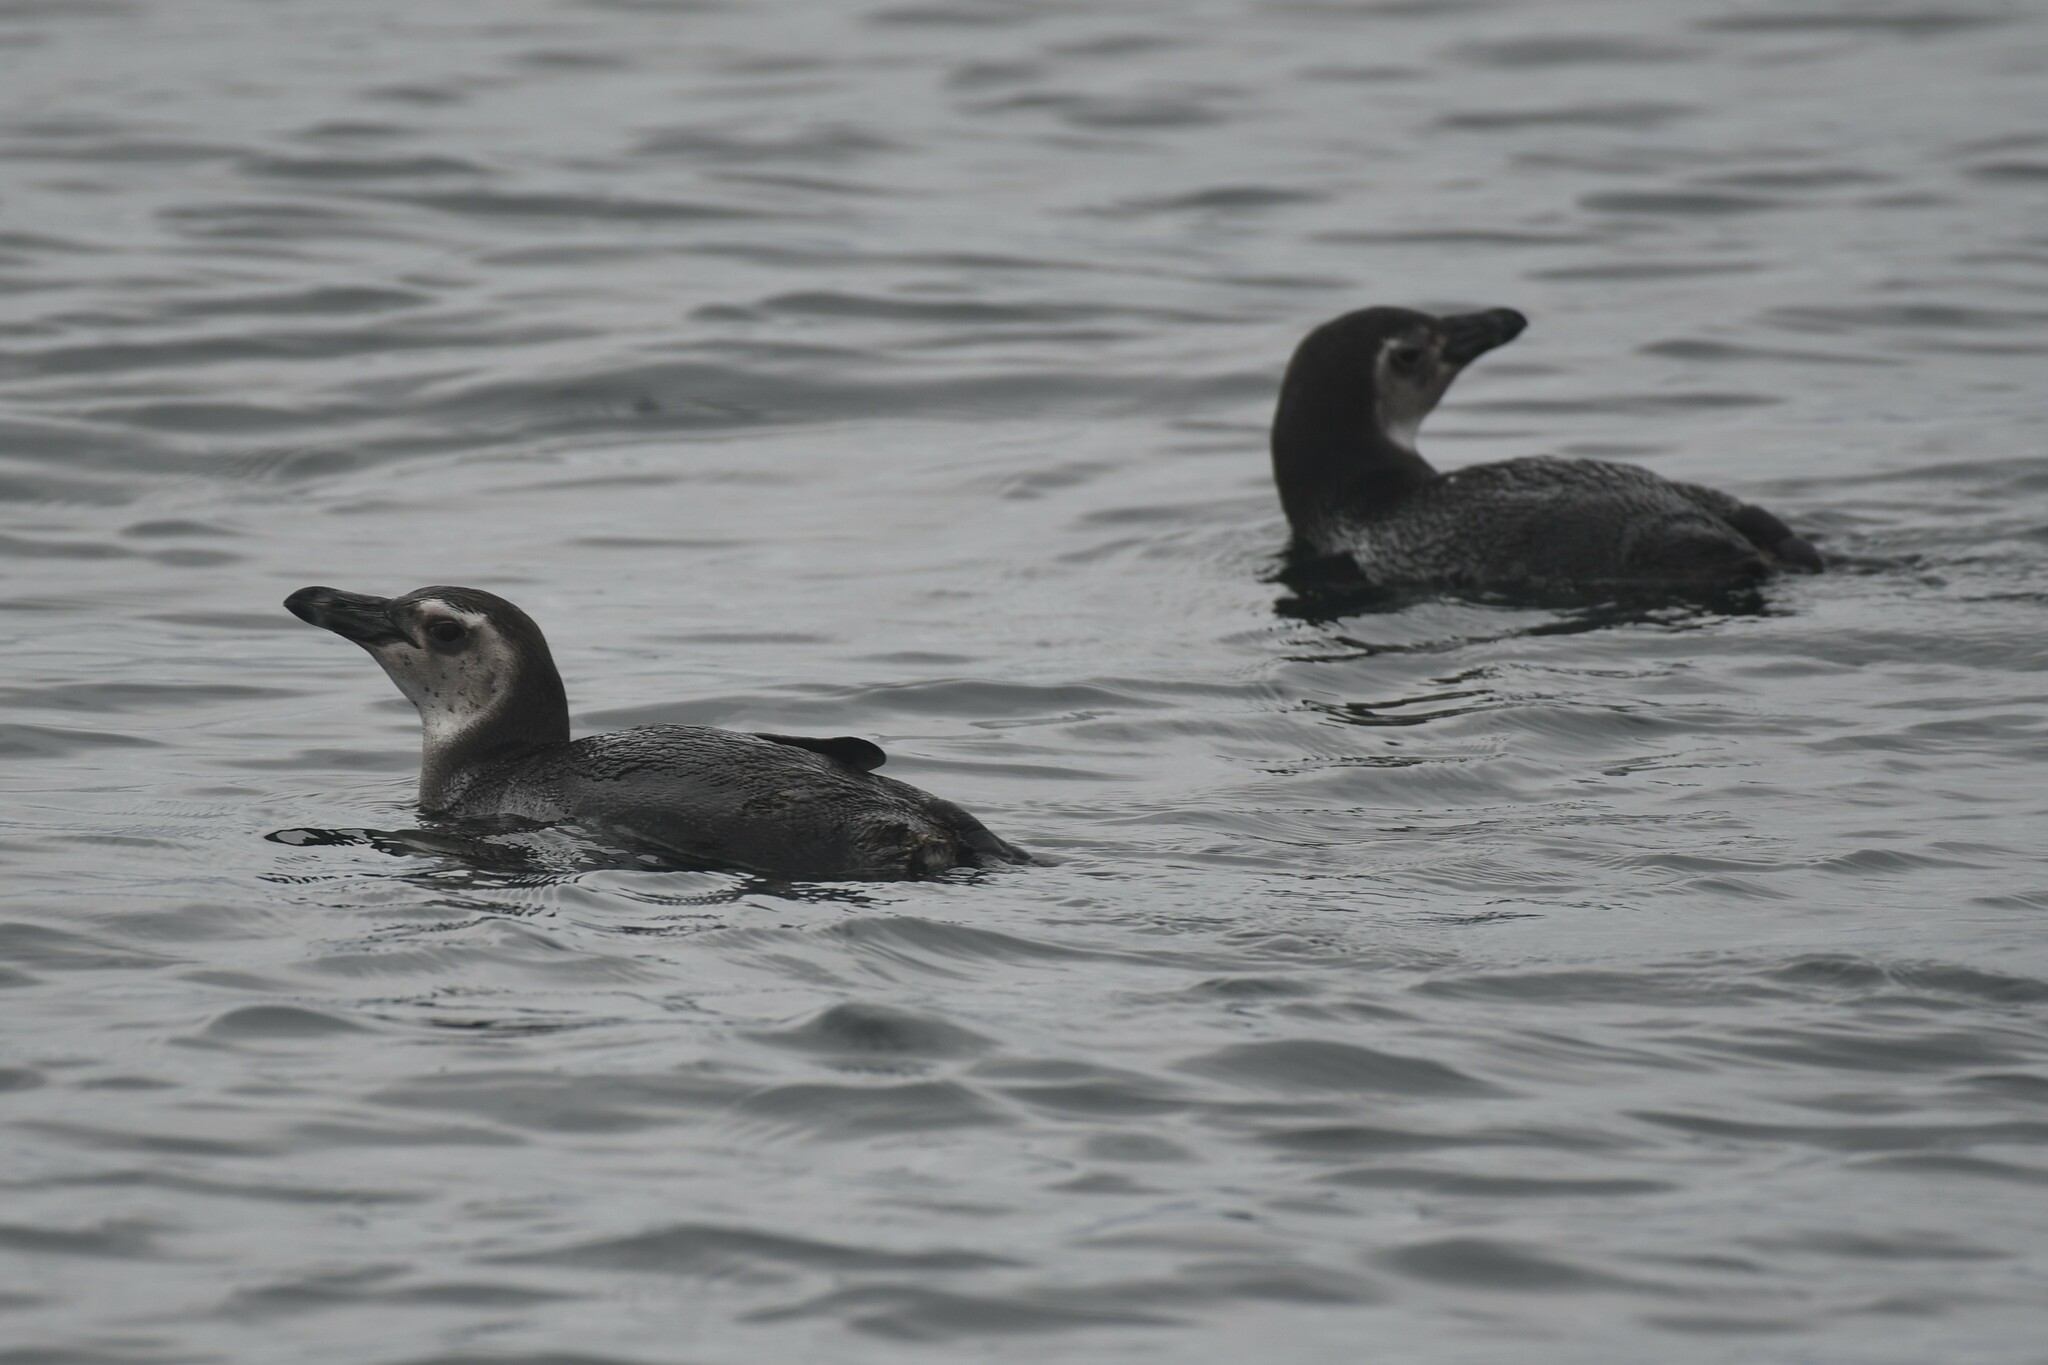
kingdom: Animalia
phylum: Chordata
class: Aves
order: Sphenisciformes
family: Spheniscidae
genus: Spheniscus
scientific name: Spheniscus magellanicus
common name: Magellanic penguin
